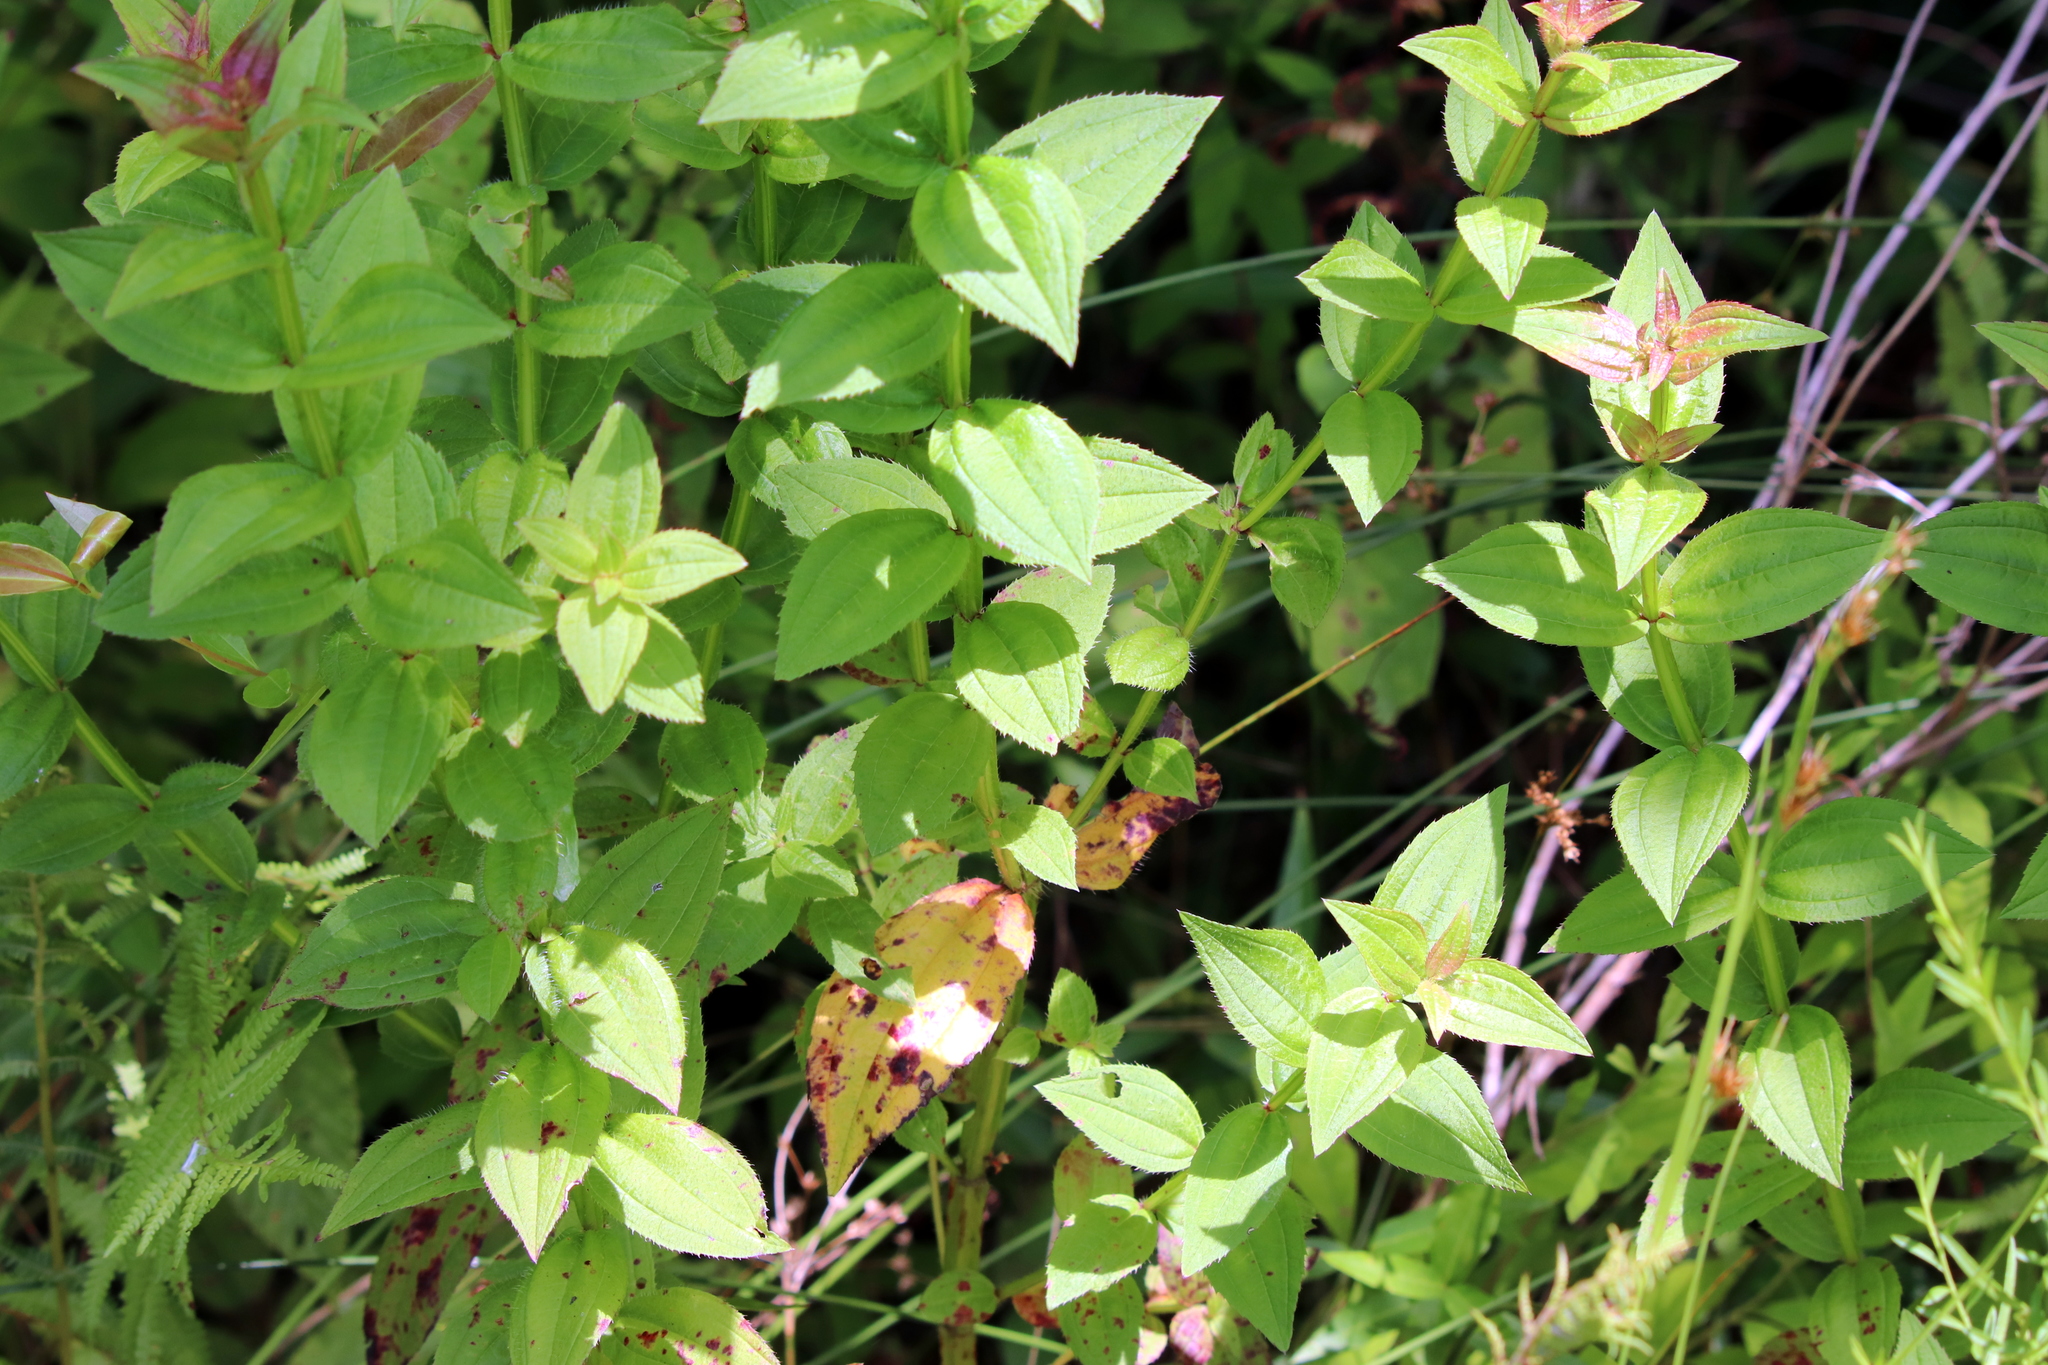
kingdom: Plantae
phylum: Tracheophyta
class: Magnoliopsida
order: Myrtales
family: Melastomataceae
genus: Rhexia
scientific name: Rhexia virginica
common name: Common meadow beauty
